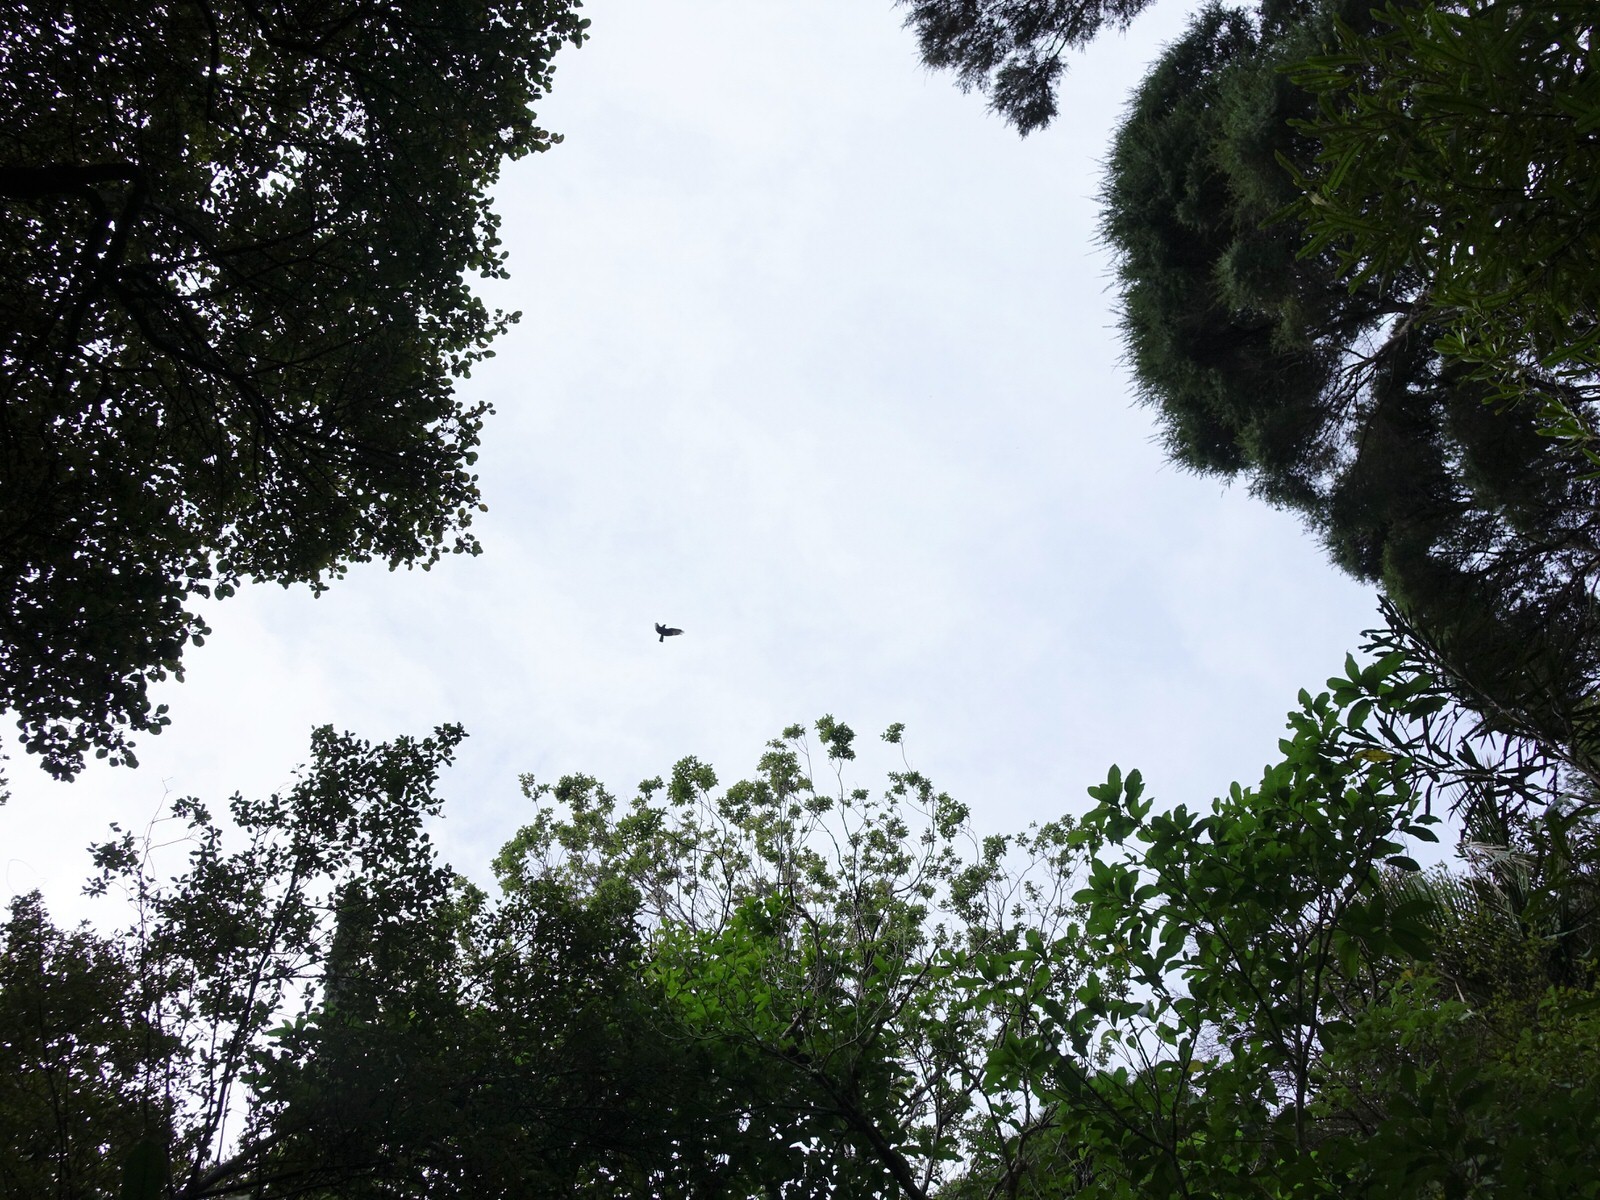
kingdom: Animalia
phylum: Chordata
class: Aves
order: Accipitriformes
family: Accipitridae
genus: Circus
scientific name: Circus approximans
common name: Swamp harrier
